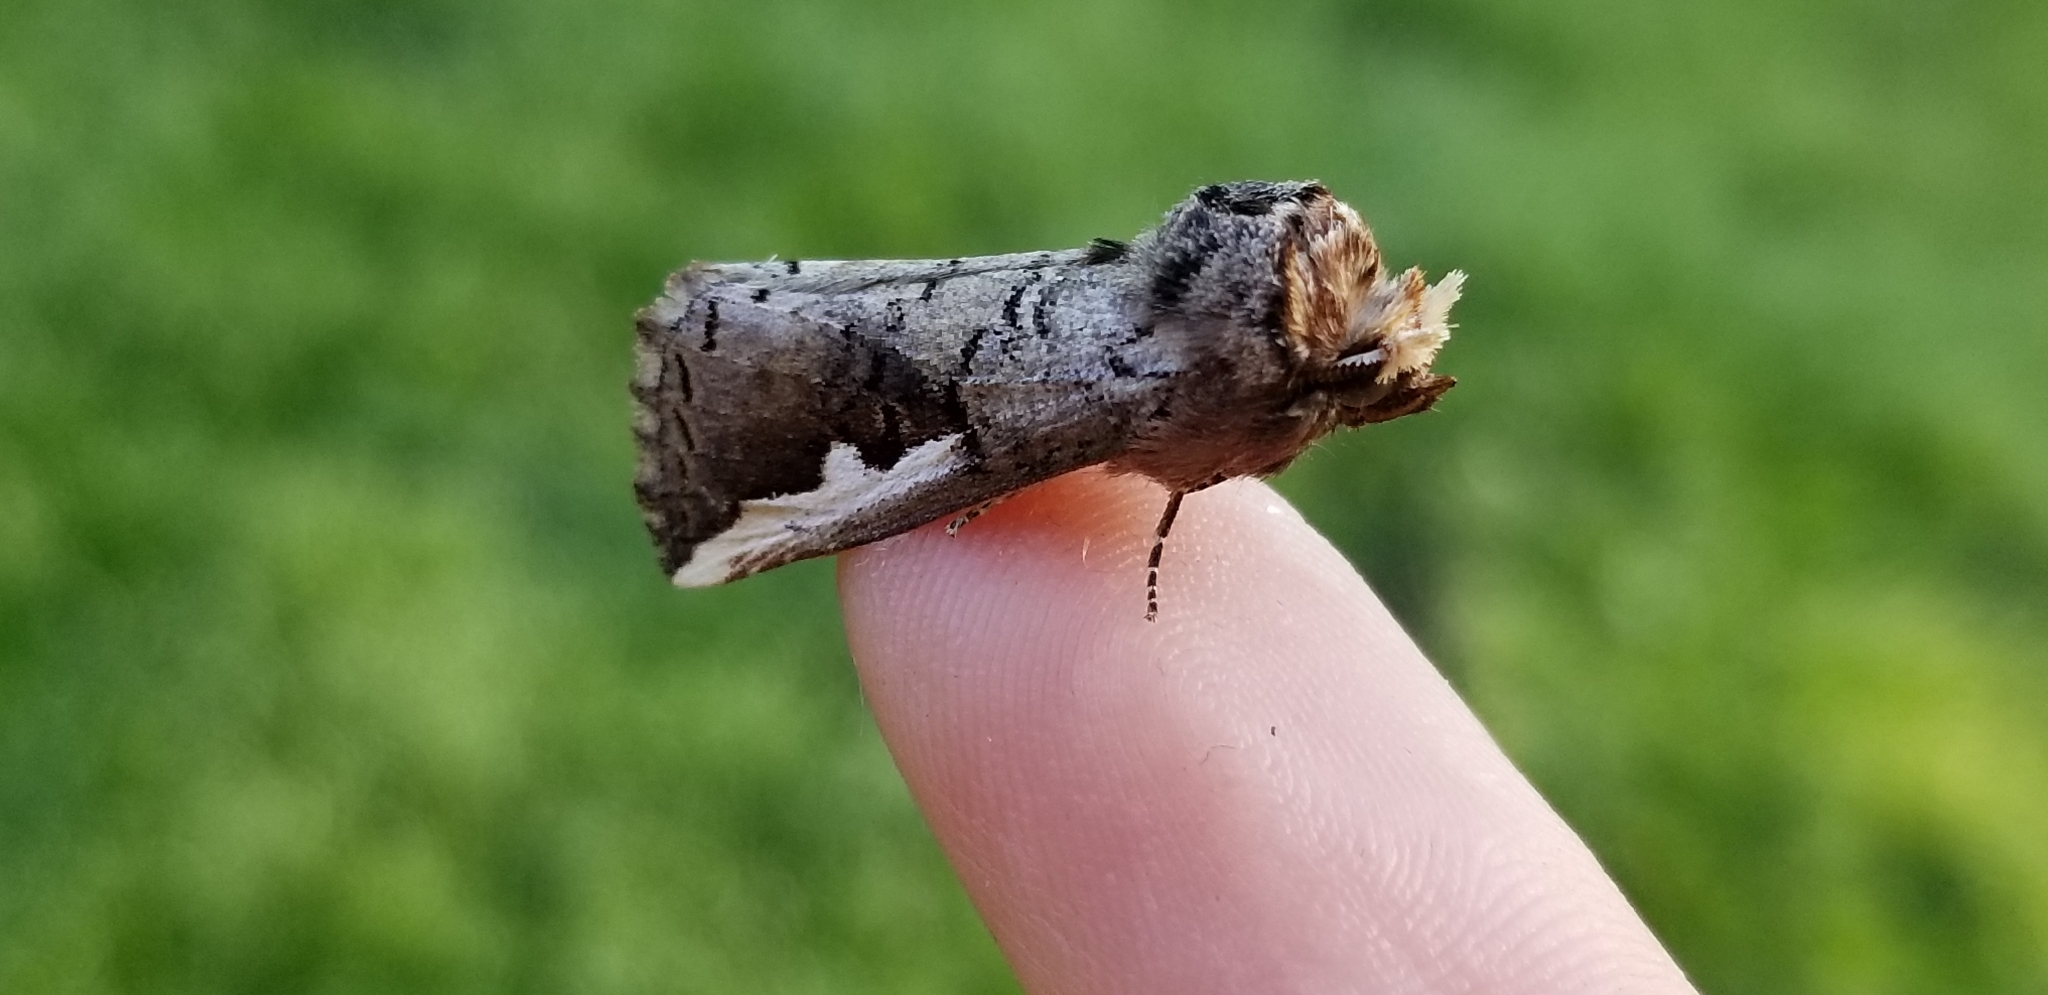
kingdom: Animalia
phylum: Arthropoda
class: Insecta
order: Lepidoptera
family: Notodontidae
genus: Symmerista
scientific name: Symmerista
